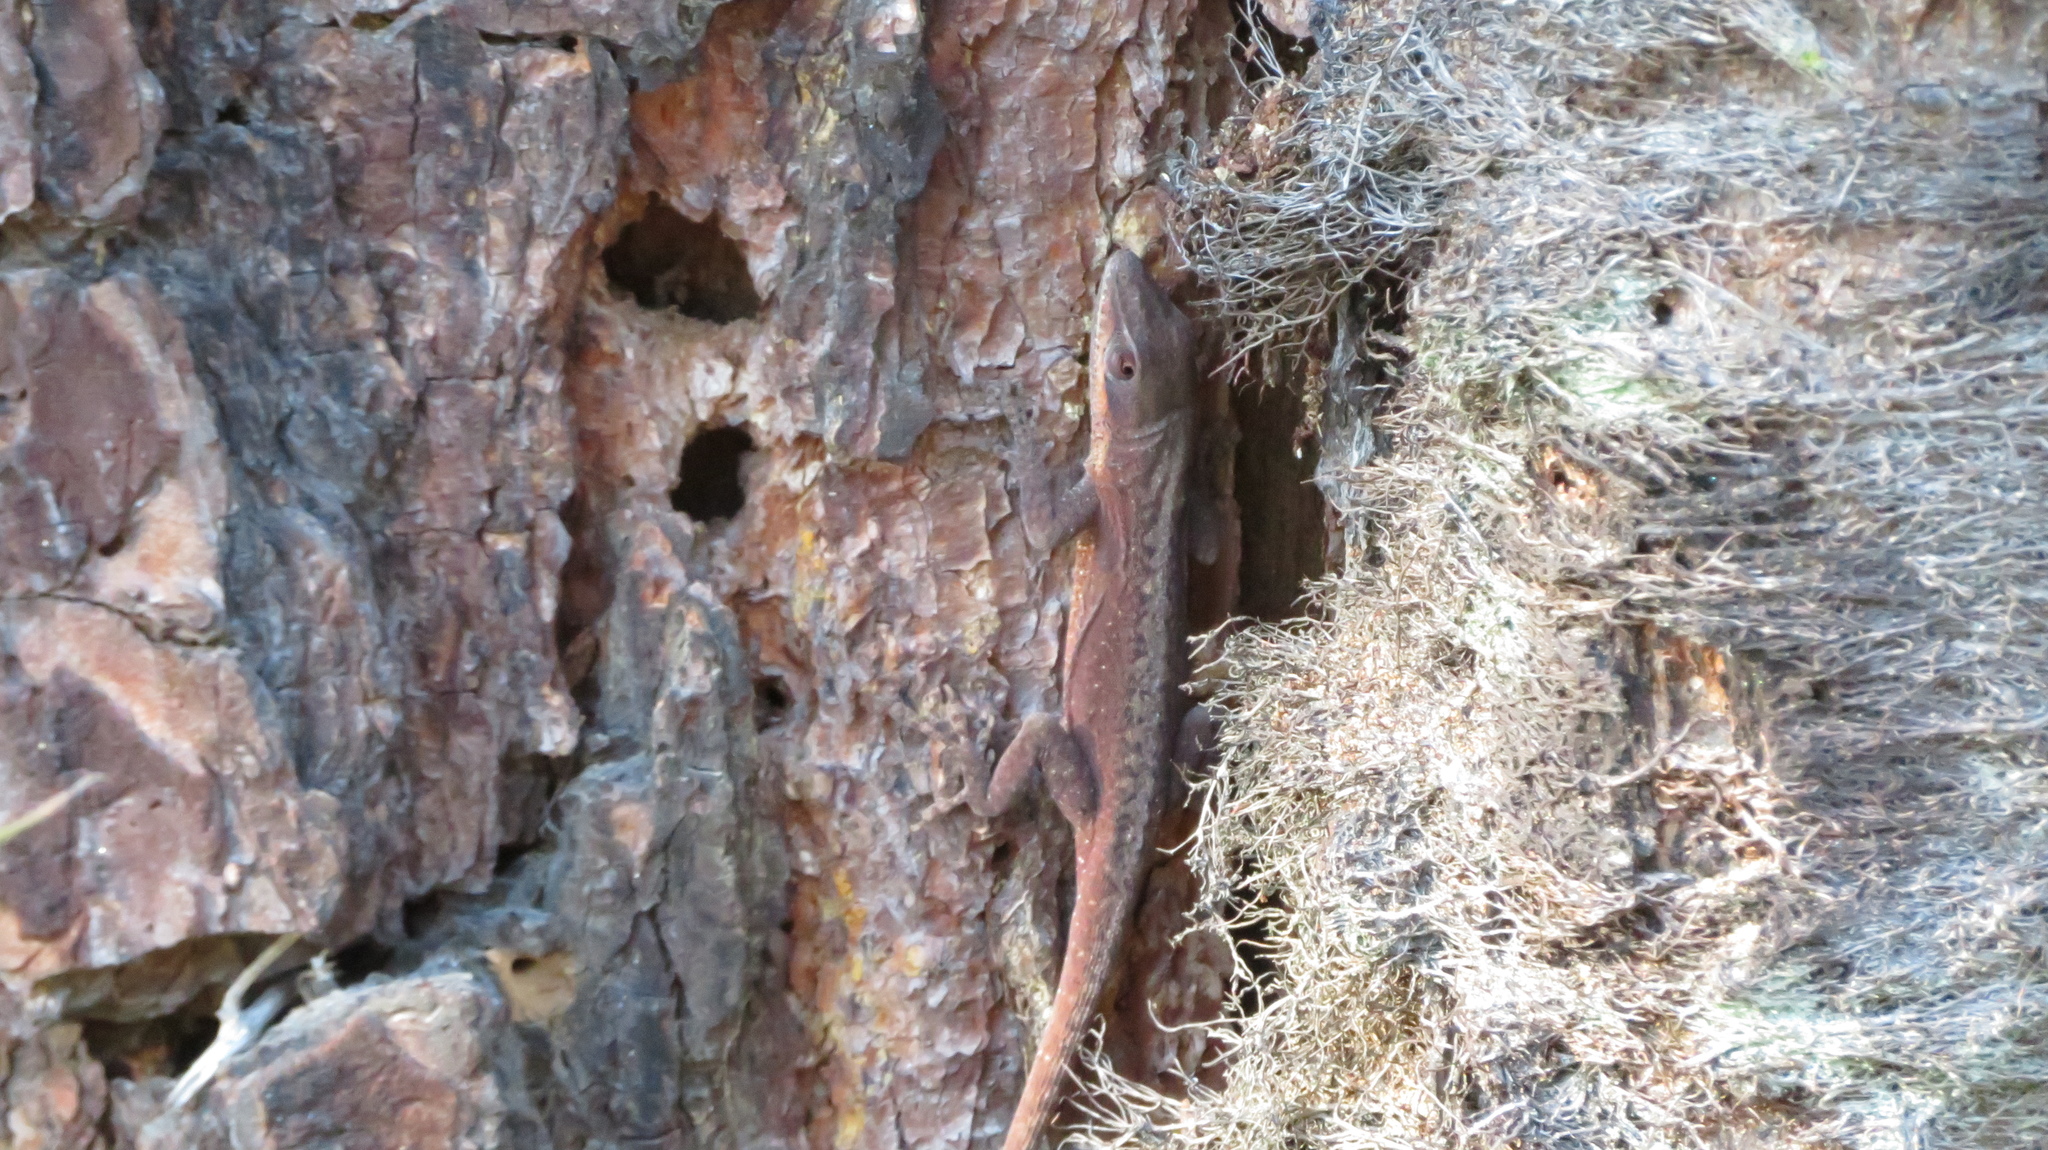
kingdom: Animalia
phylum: Chordata
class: Squamata
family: Dactyloidae
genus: Anolis
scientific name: Anolis carolinensis
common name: Green anole
